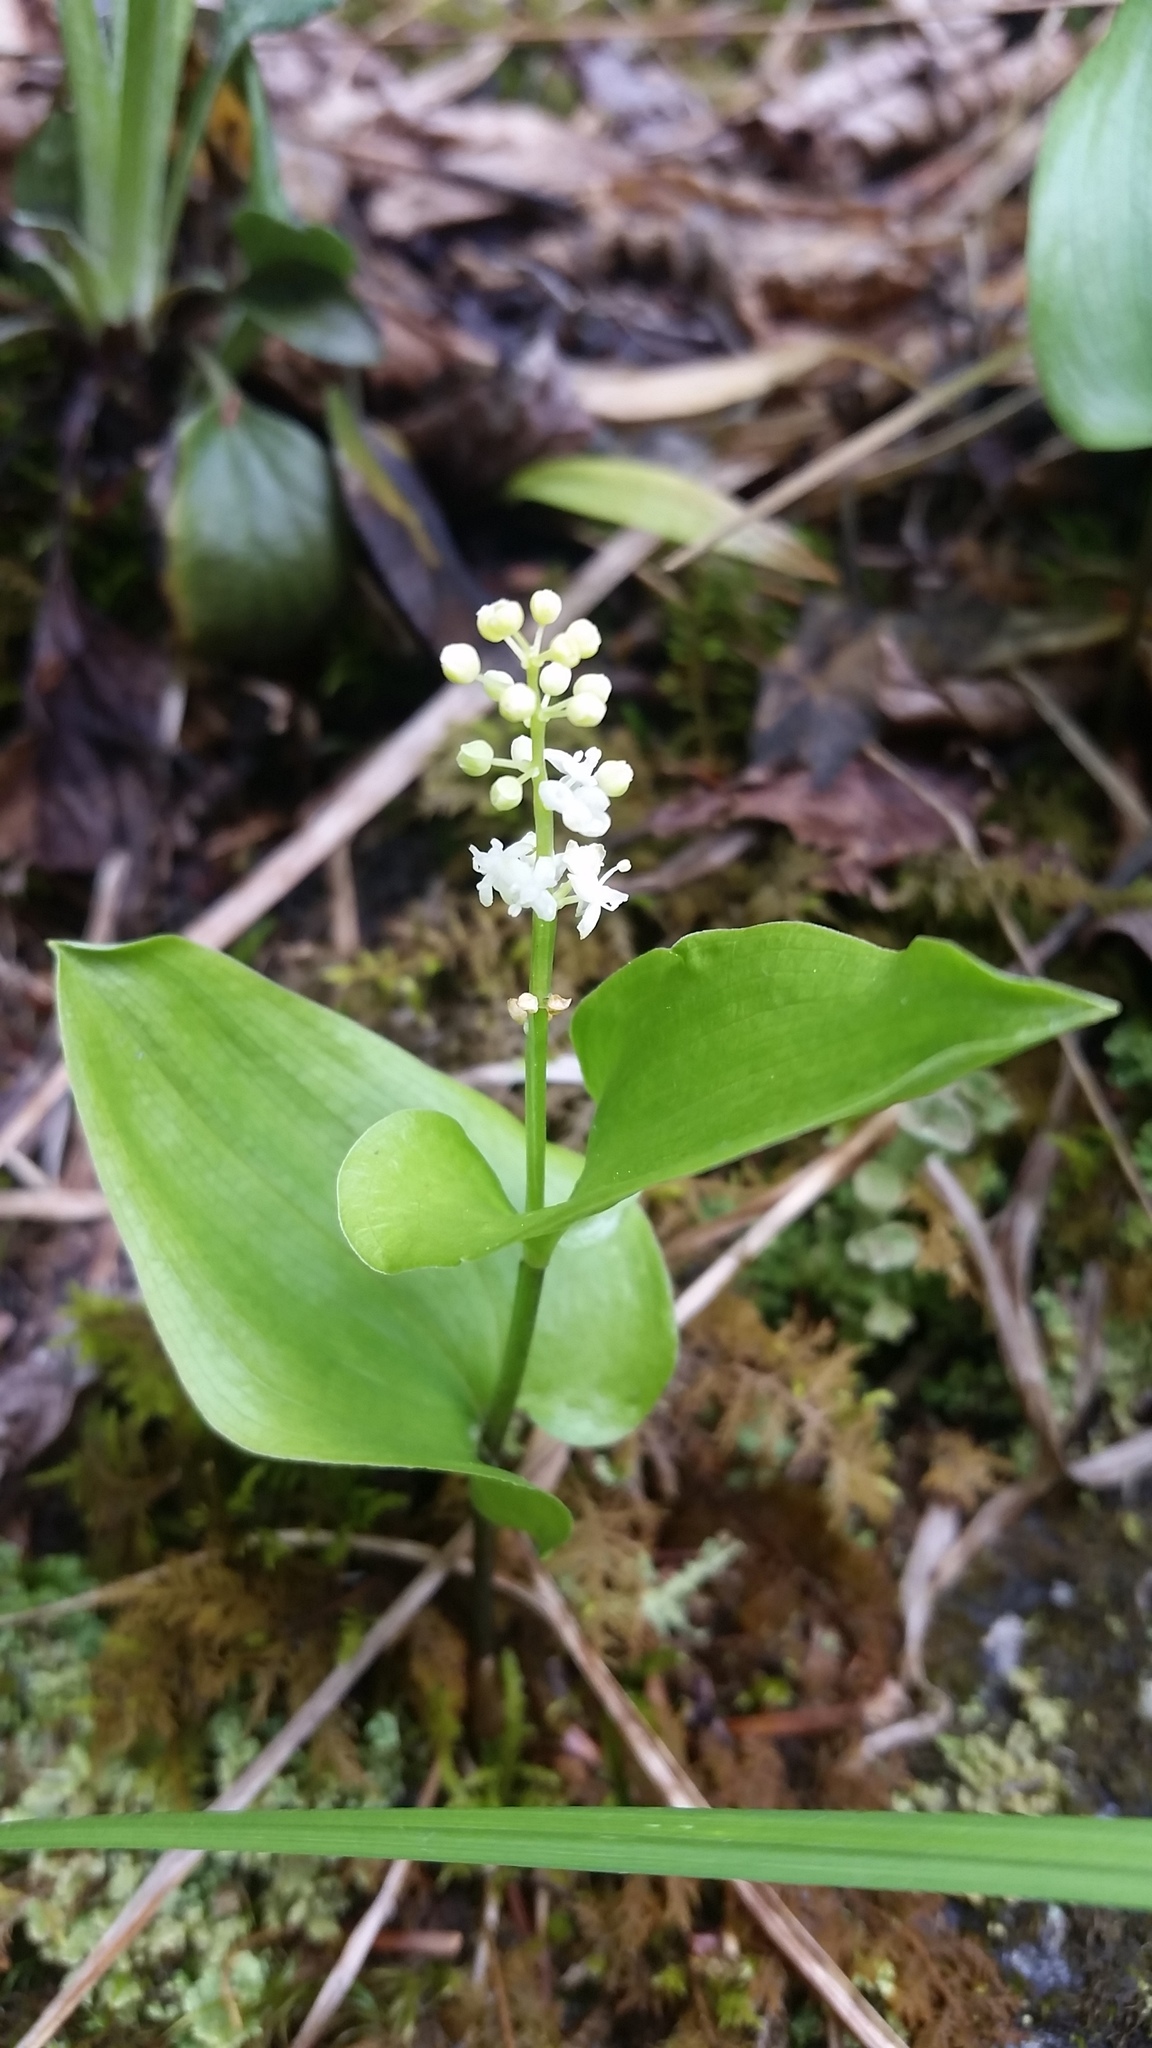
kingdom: Plantae
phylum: Tracheophyta
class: Liliopsida
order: Asparagales
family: Asparagaceae
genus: Maianthemum
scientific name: Maianthemum canadense
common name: False lily-of-the-valley
